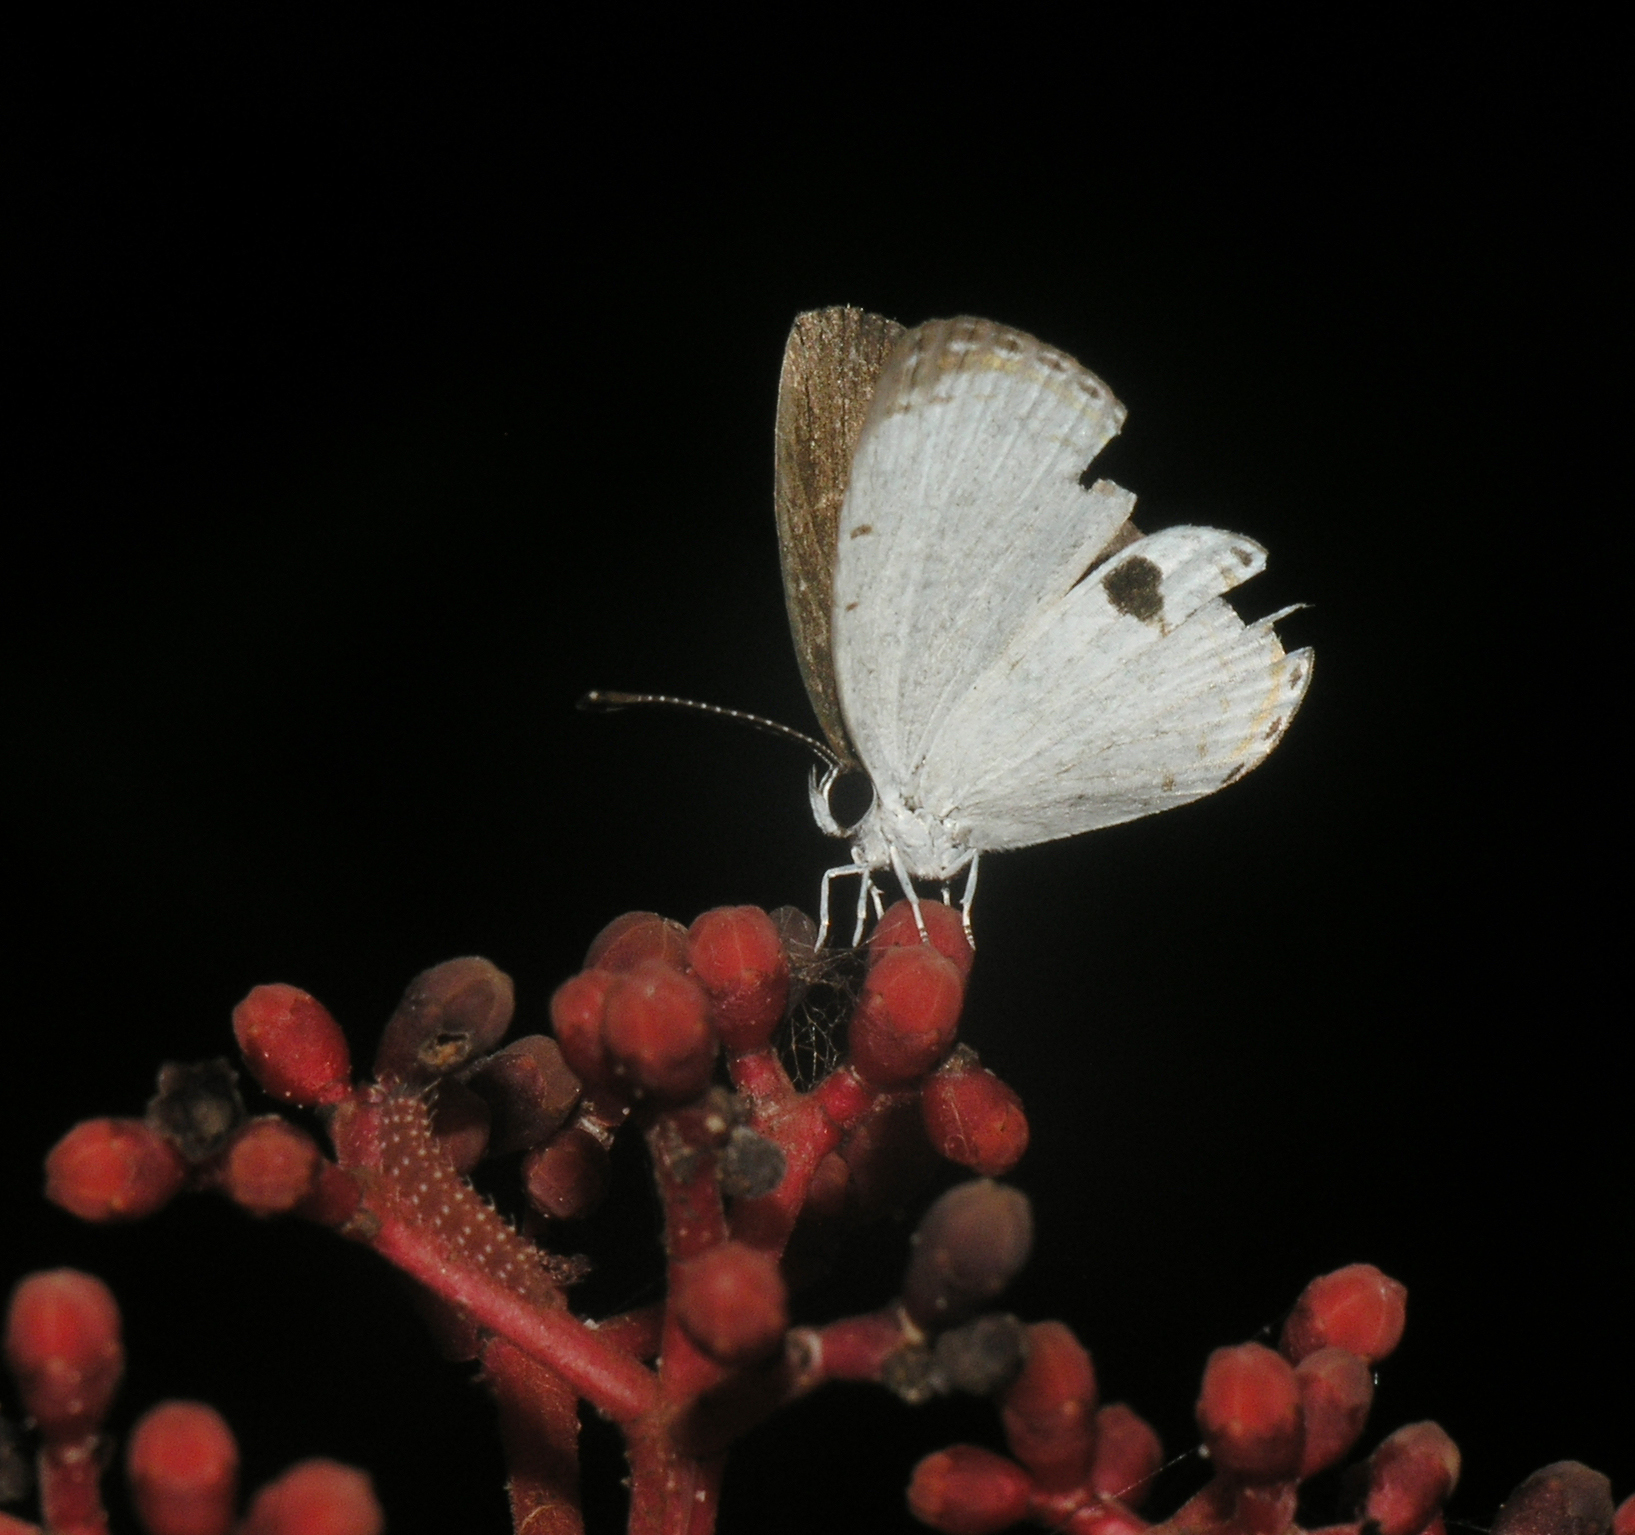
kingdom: Animalia
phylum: Arthropoda
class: Insecta
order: Lepidoptera
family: Lycaenidae
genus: Pithecops
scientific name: Pithecops corvus
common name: Forest quaker
